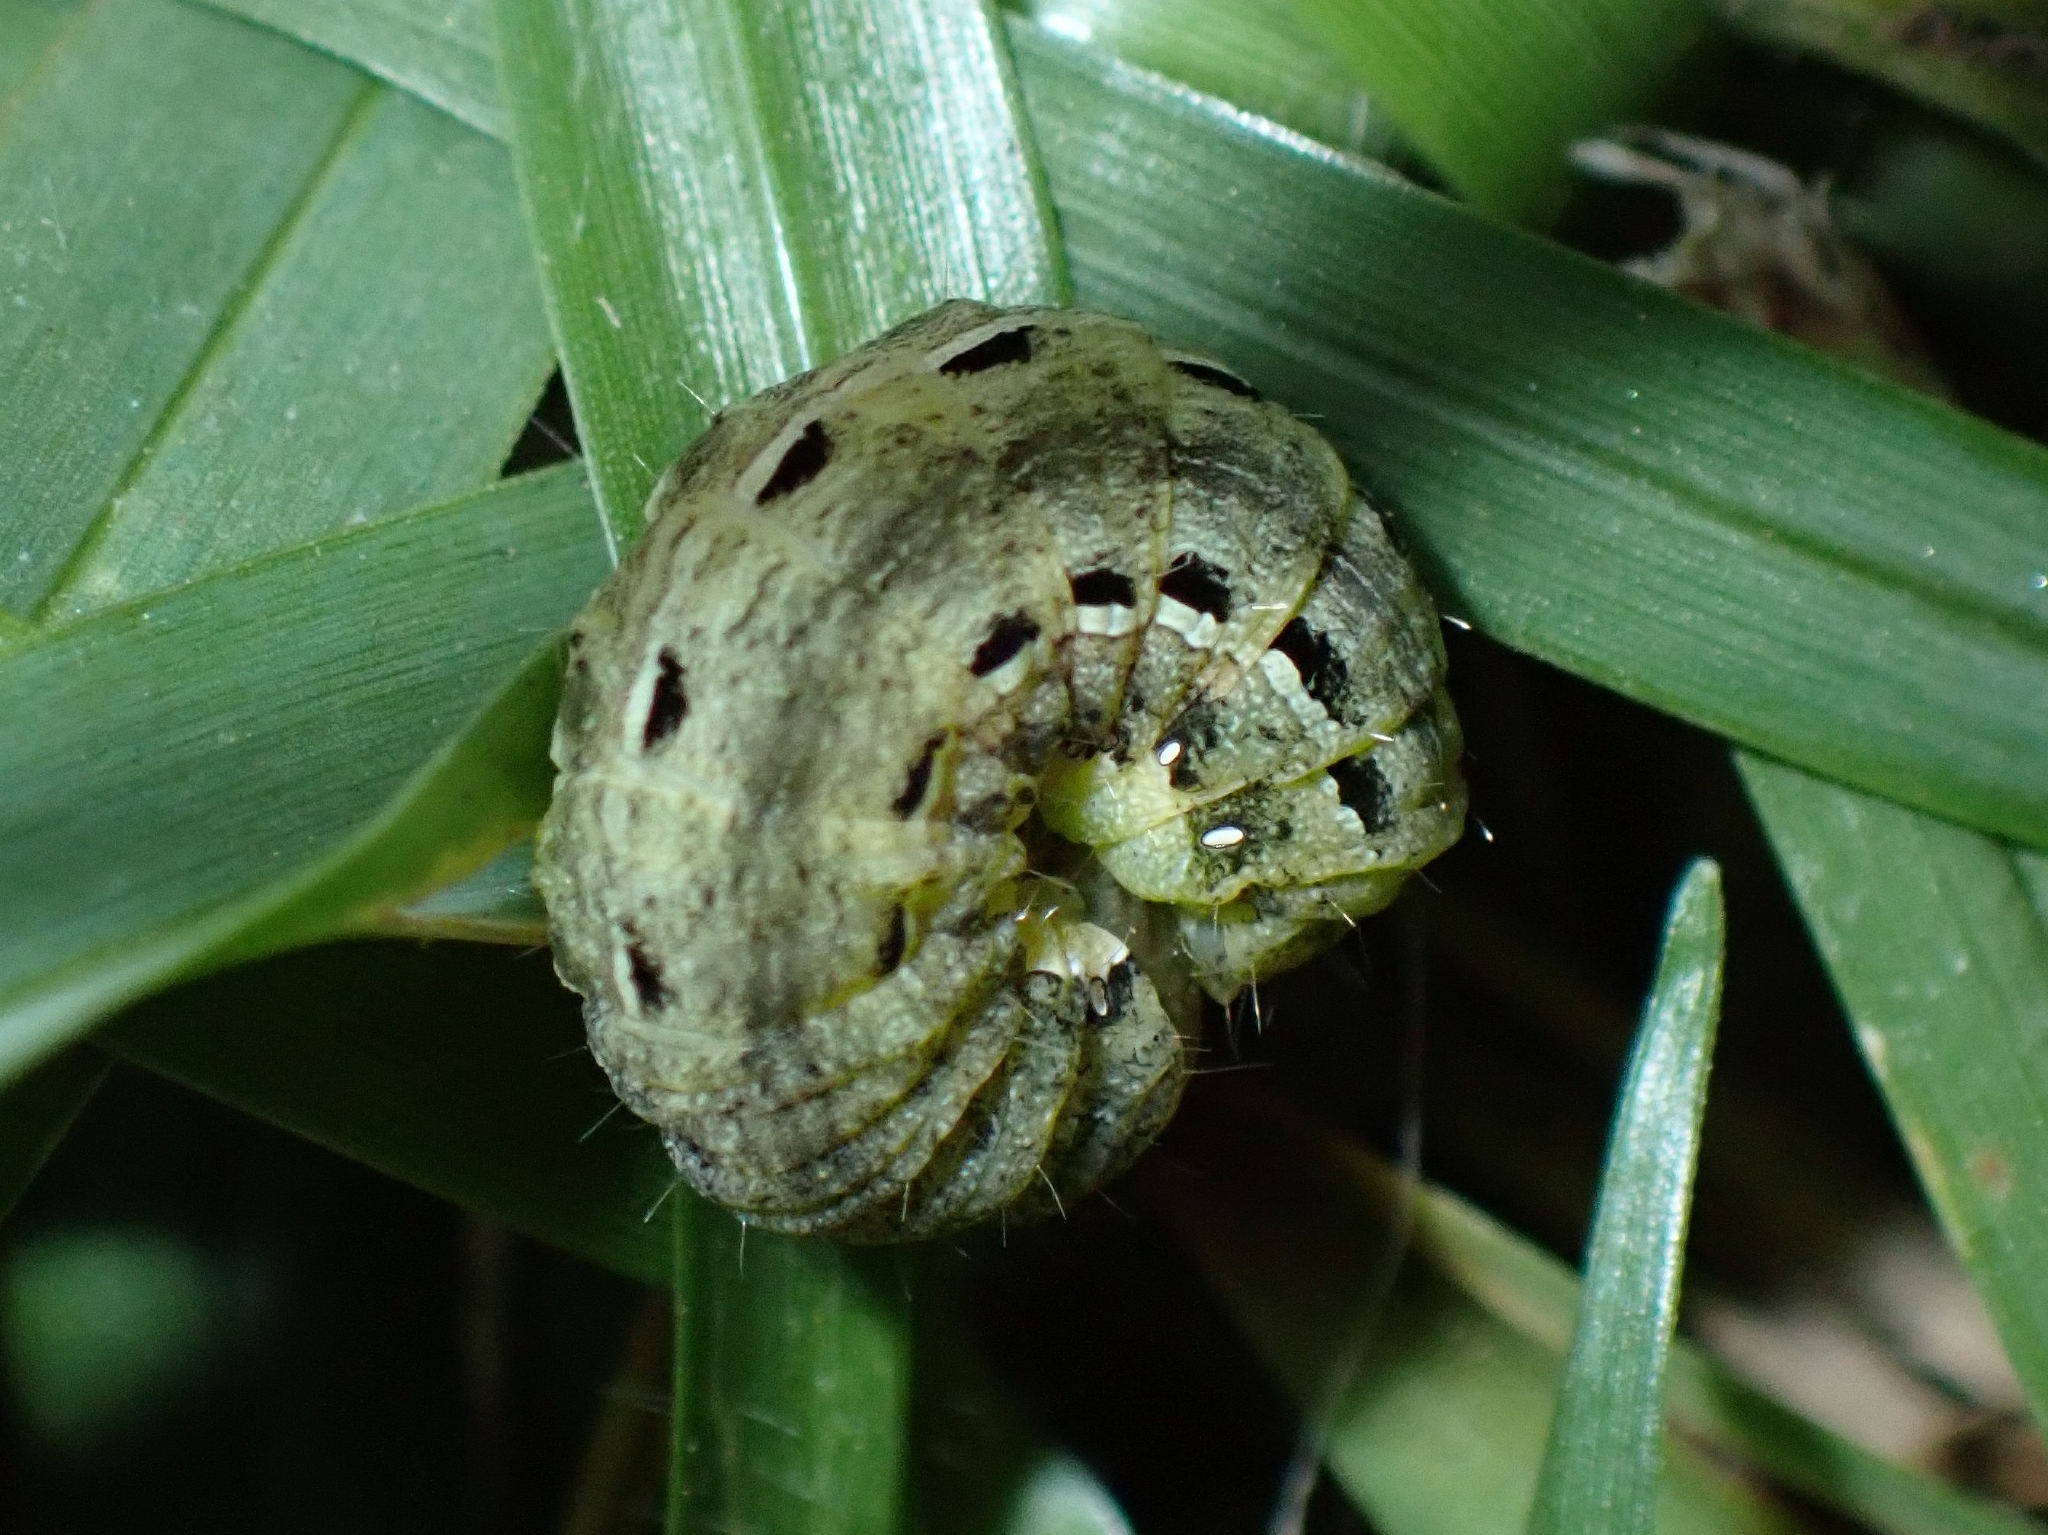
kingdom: Animalia
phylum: Arthropoda
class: Insecta
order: Lepidoptera
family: Noctuidae
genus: Noctua
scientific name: Noctua pronuba
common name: Large yellow underwing
